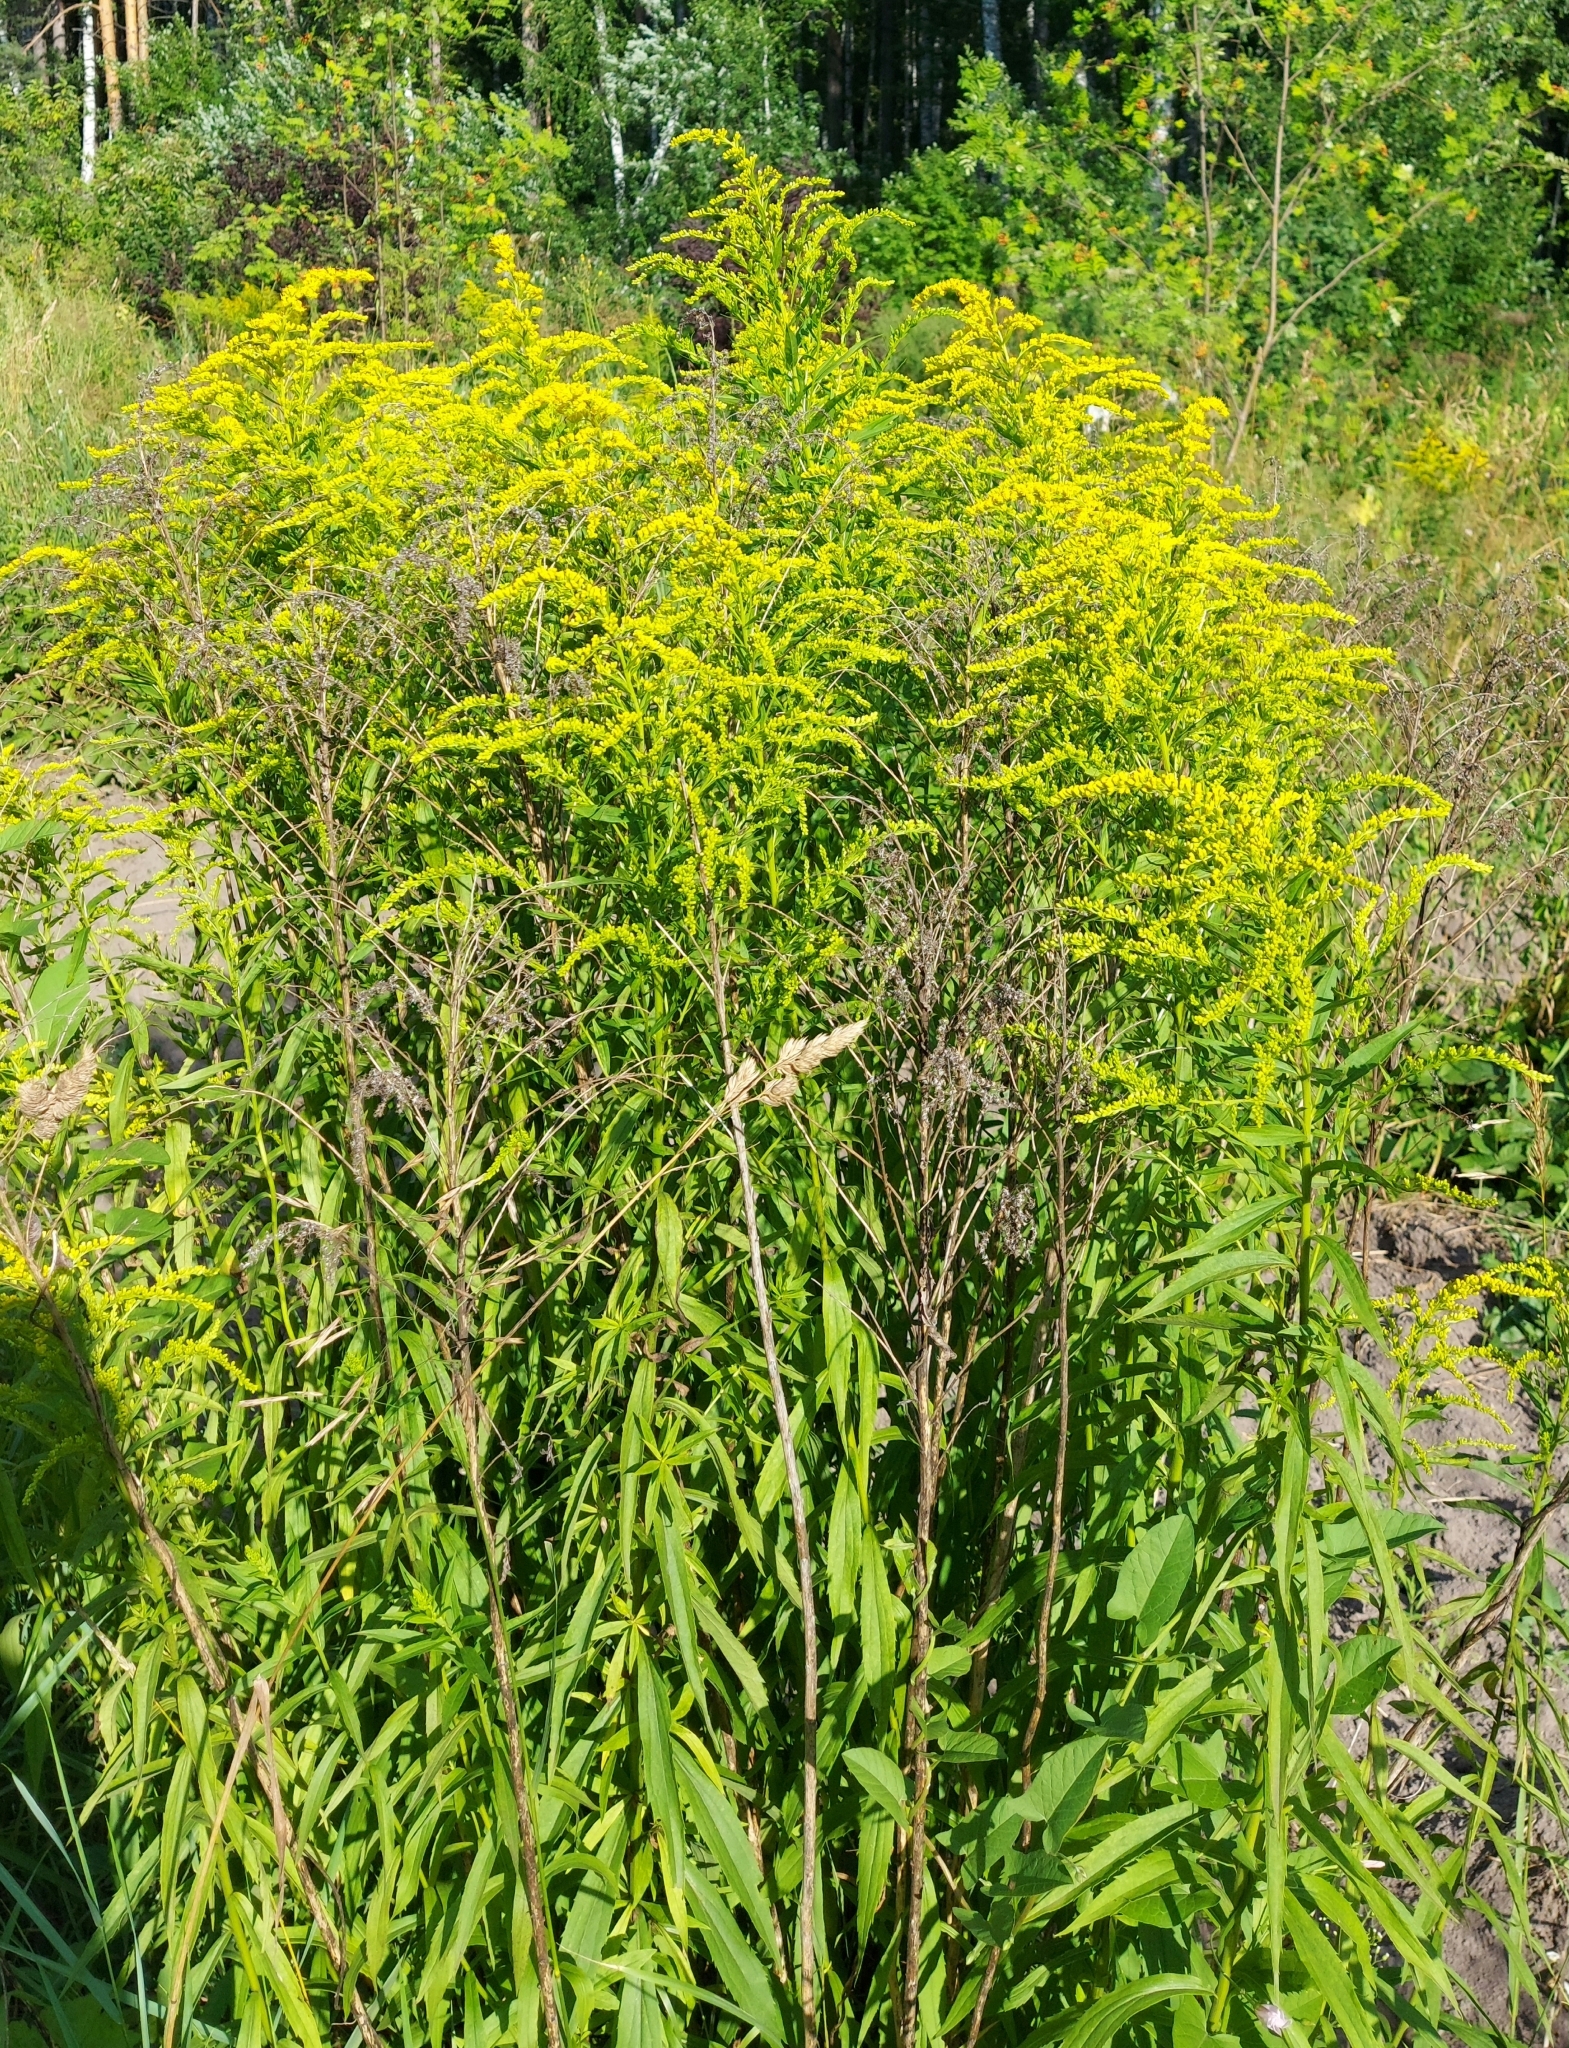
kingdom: Plantae
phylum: Tracheophyta
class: Magnoliopsida
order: Asterales
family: Asteraceae
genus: Solidago
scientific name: Solidago canadensis
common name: Canada goldenrod
